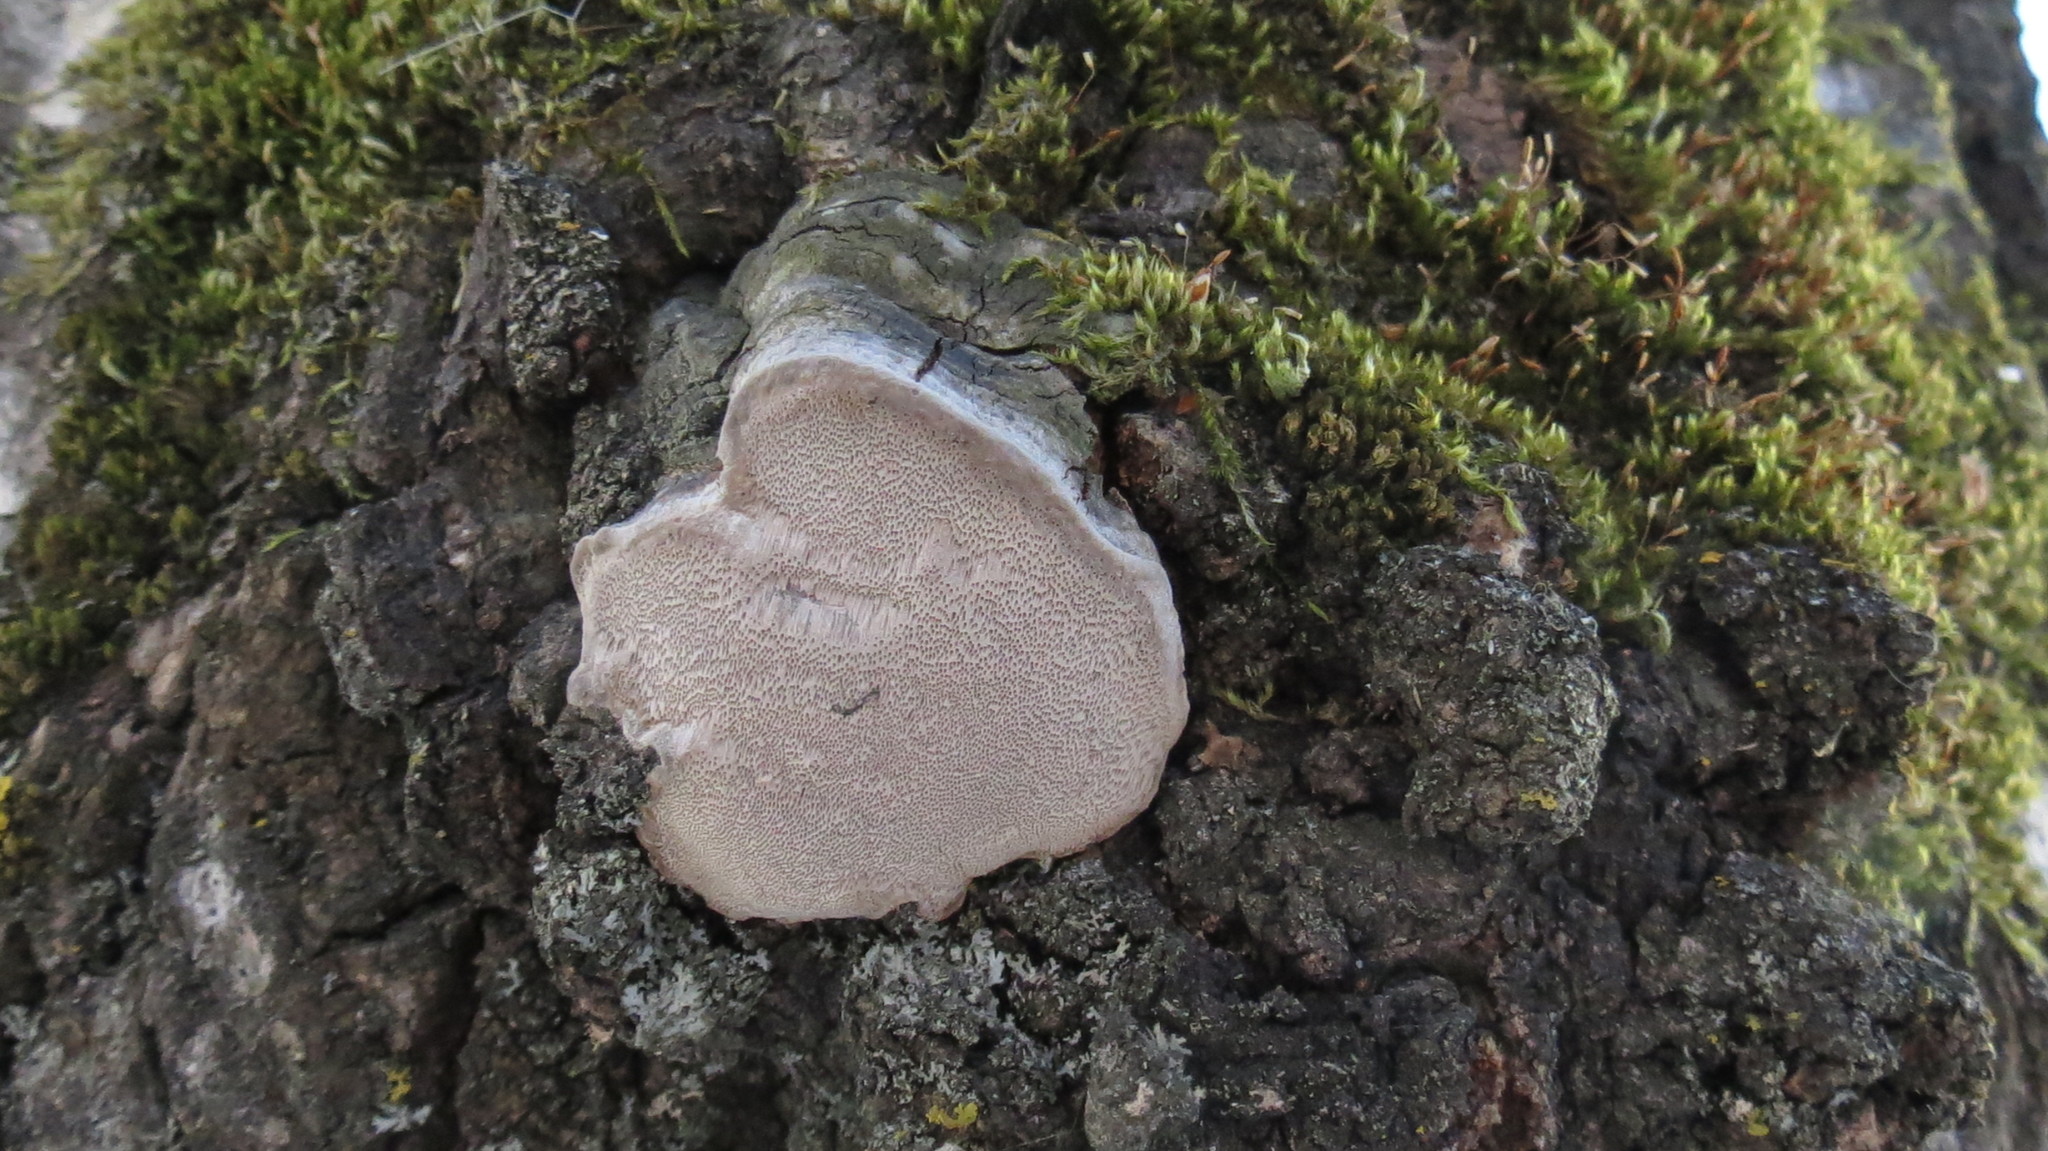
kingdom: Fungi
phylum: Basidiomycota
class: Agaricomycetes
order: Hymenochaetales
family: Hymenochaetaceae
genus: Phellinus
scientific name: Phellinus tremulae
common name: Aspen bracket
